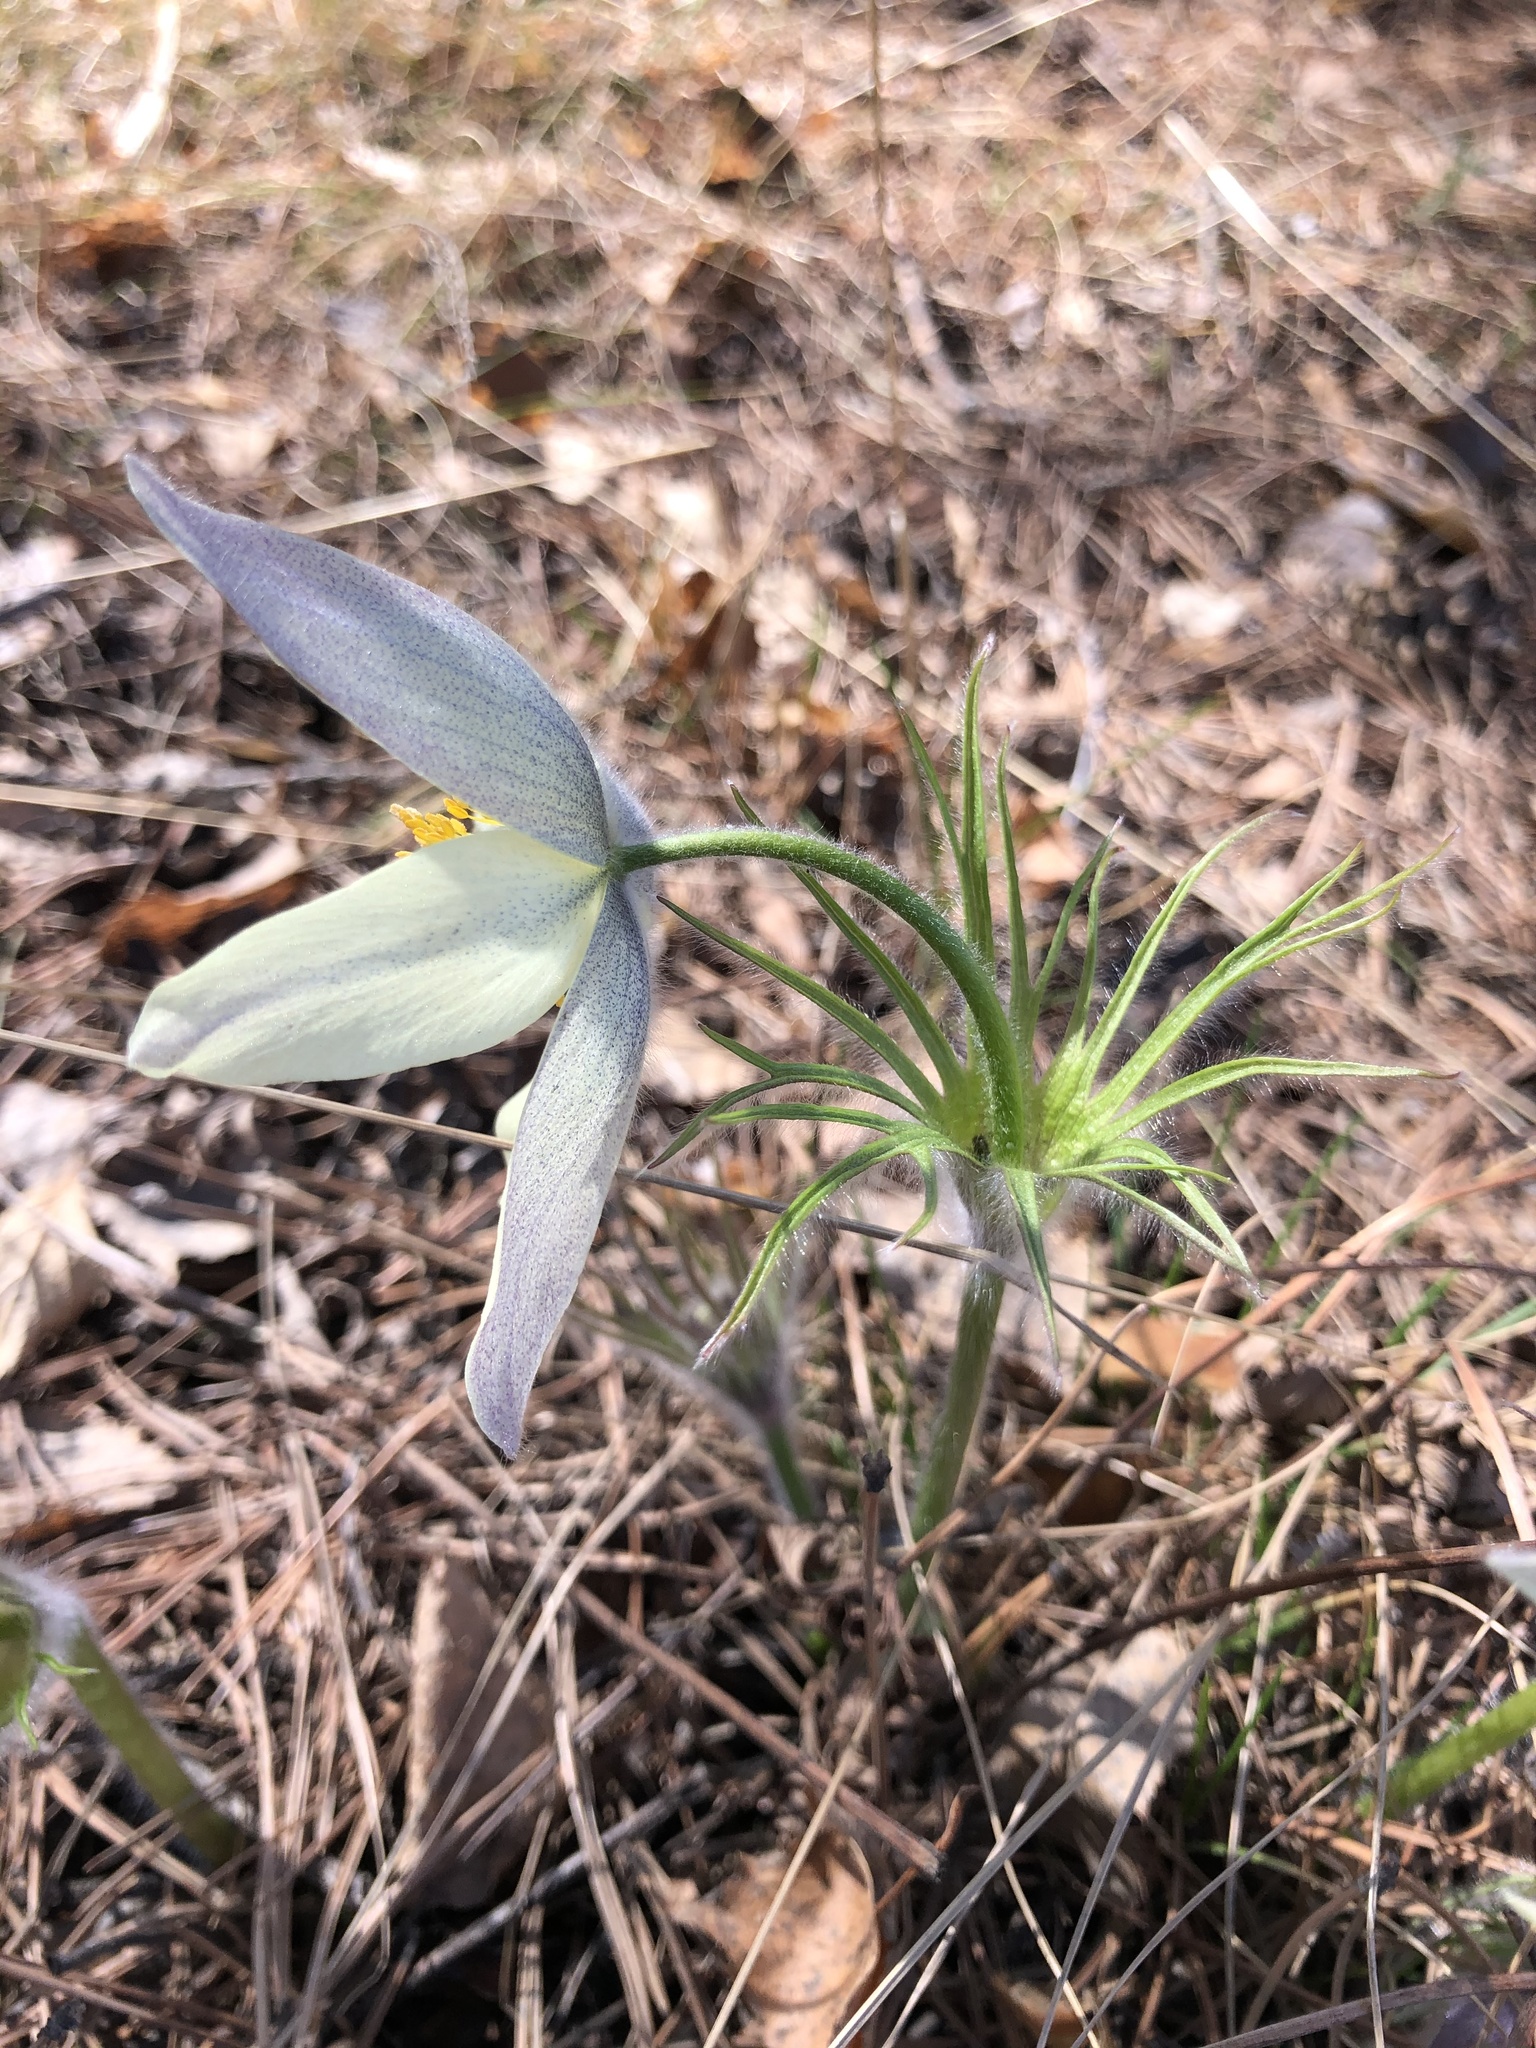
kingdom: Plantae
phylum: Tracheophyta
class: Magnoliopsida
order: Ranunculales
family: Ranunculaceae
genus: Pulsatilla
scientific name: Pulsatilla patens
